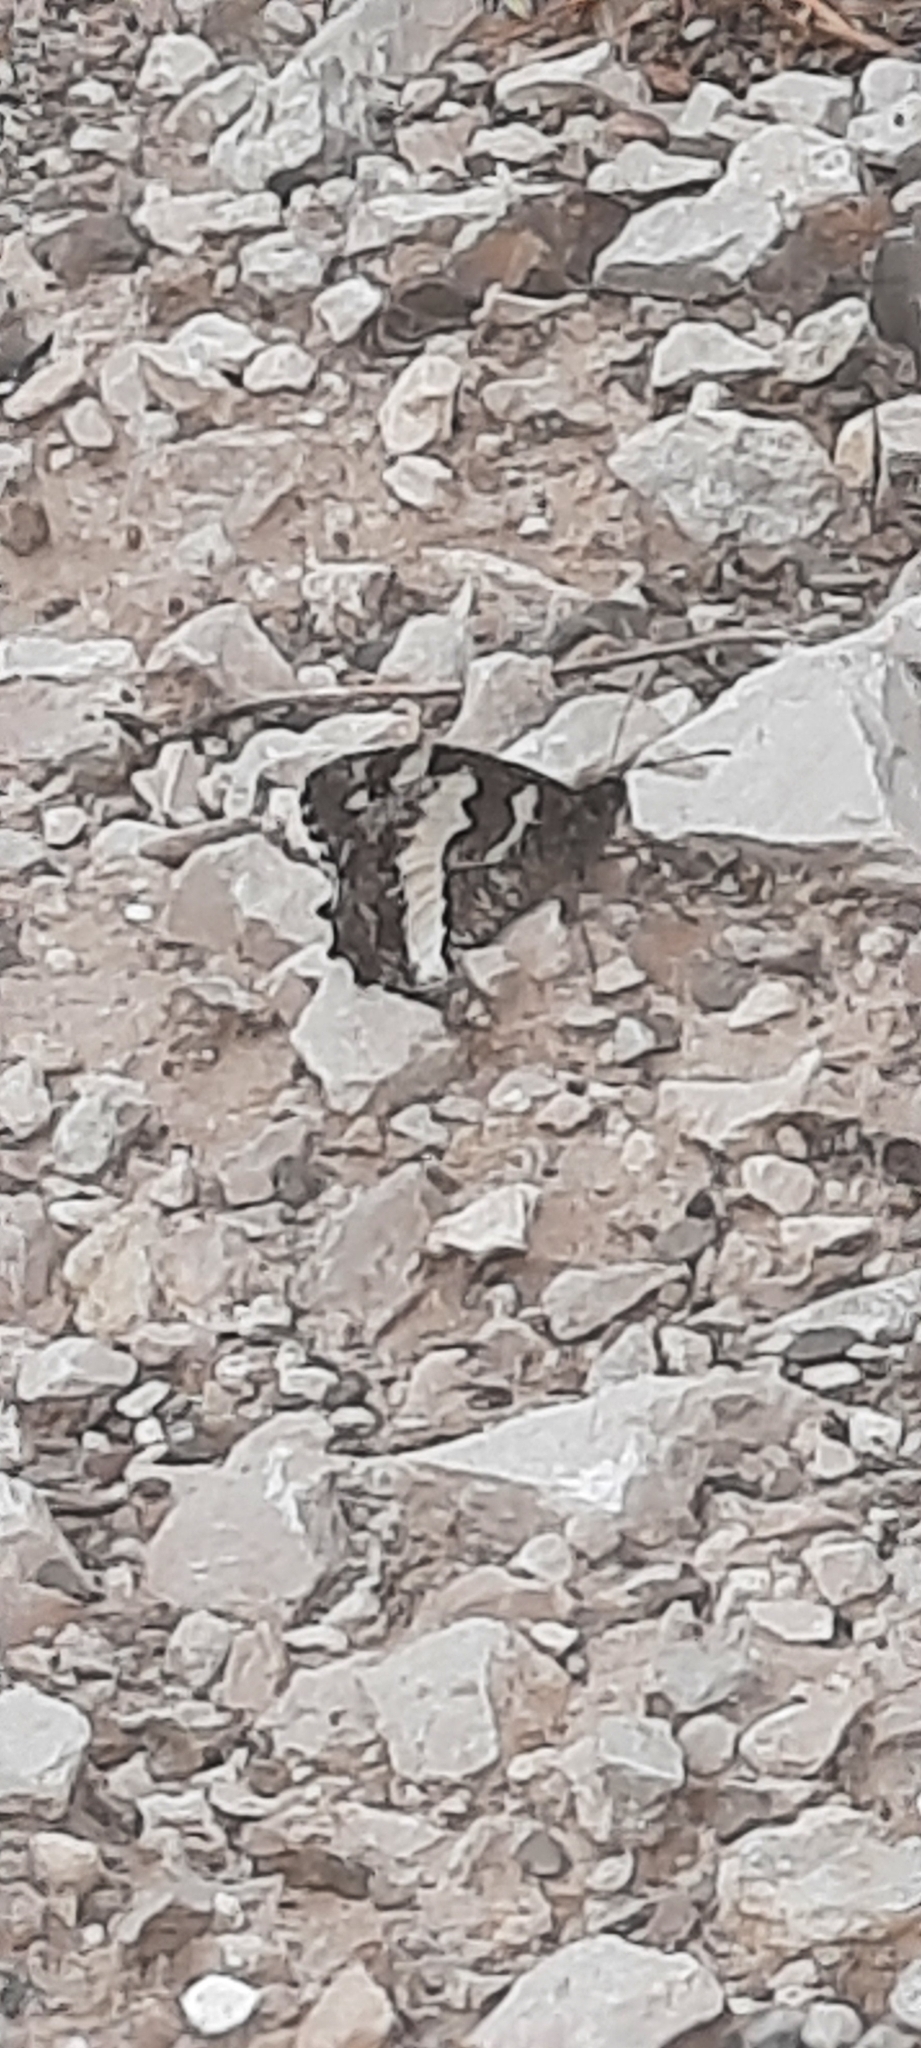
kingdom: Animalia
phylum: Arthropoda
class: Insecta
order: Lepidoptera
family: Lycaenidae
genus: Loweia
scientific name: Loweia tityrus
